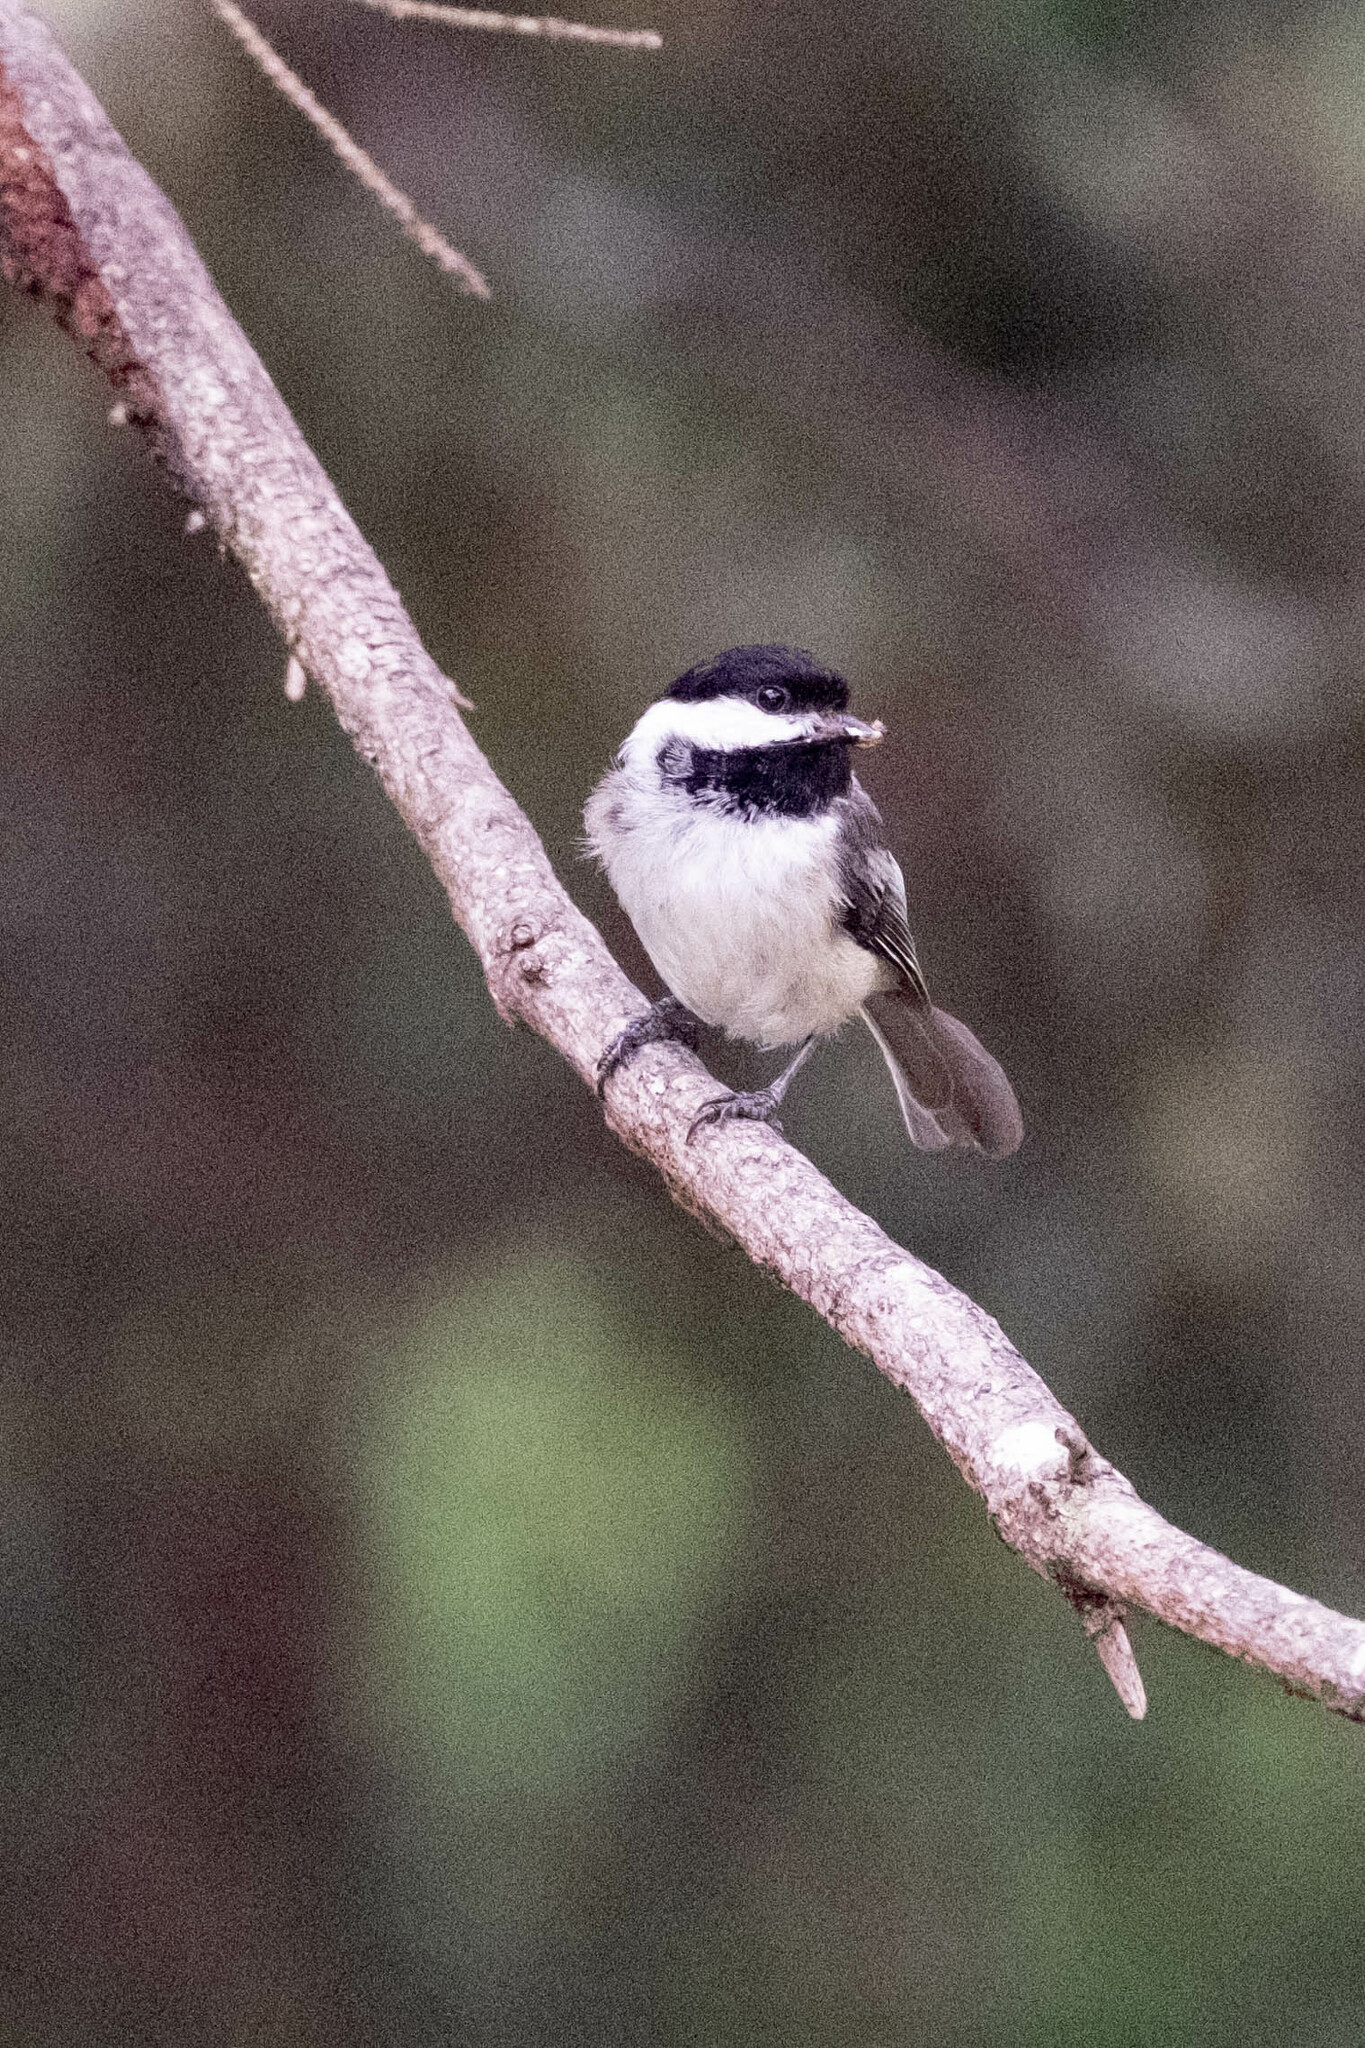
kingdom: Animalia
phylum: Chordata
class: Aves
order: Passeriformes
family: Paridae
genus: Poecile
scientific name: Poecile atricapillus
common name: Black-capped chickadee
